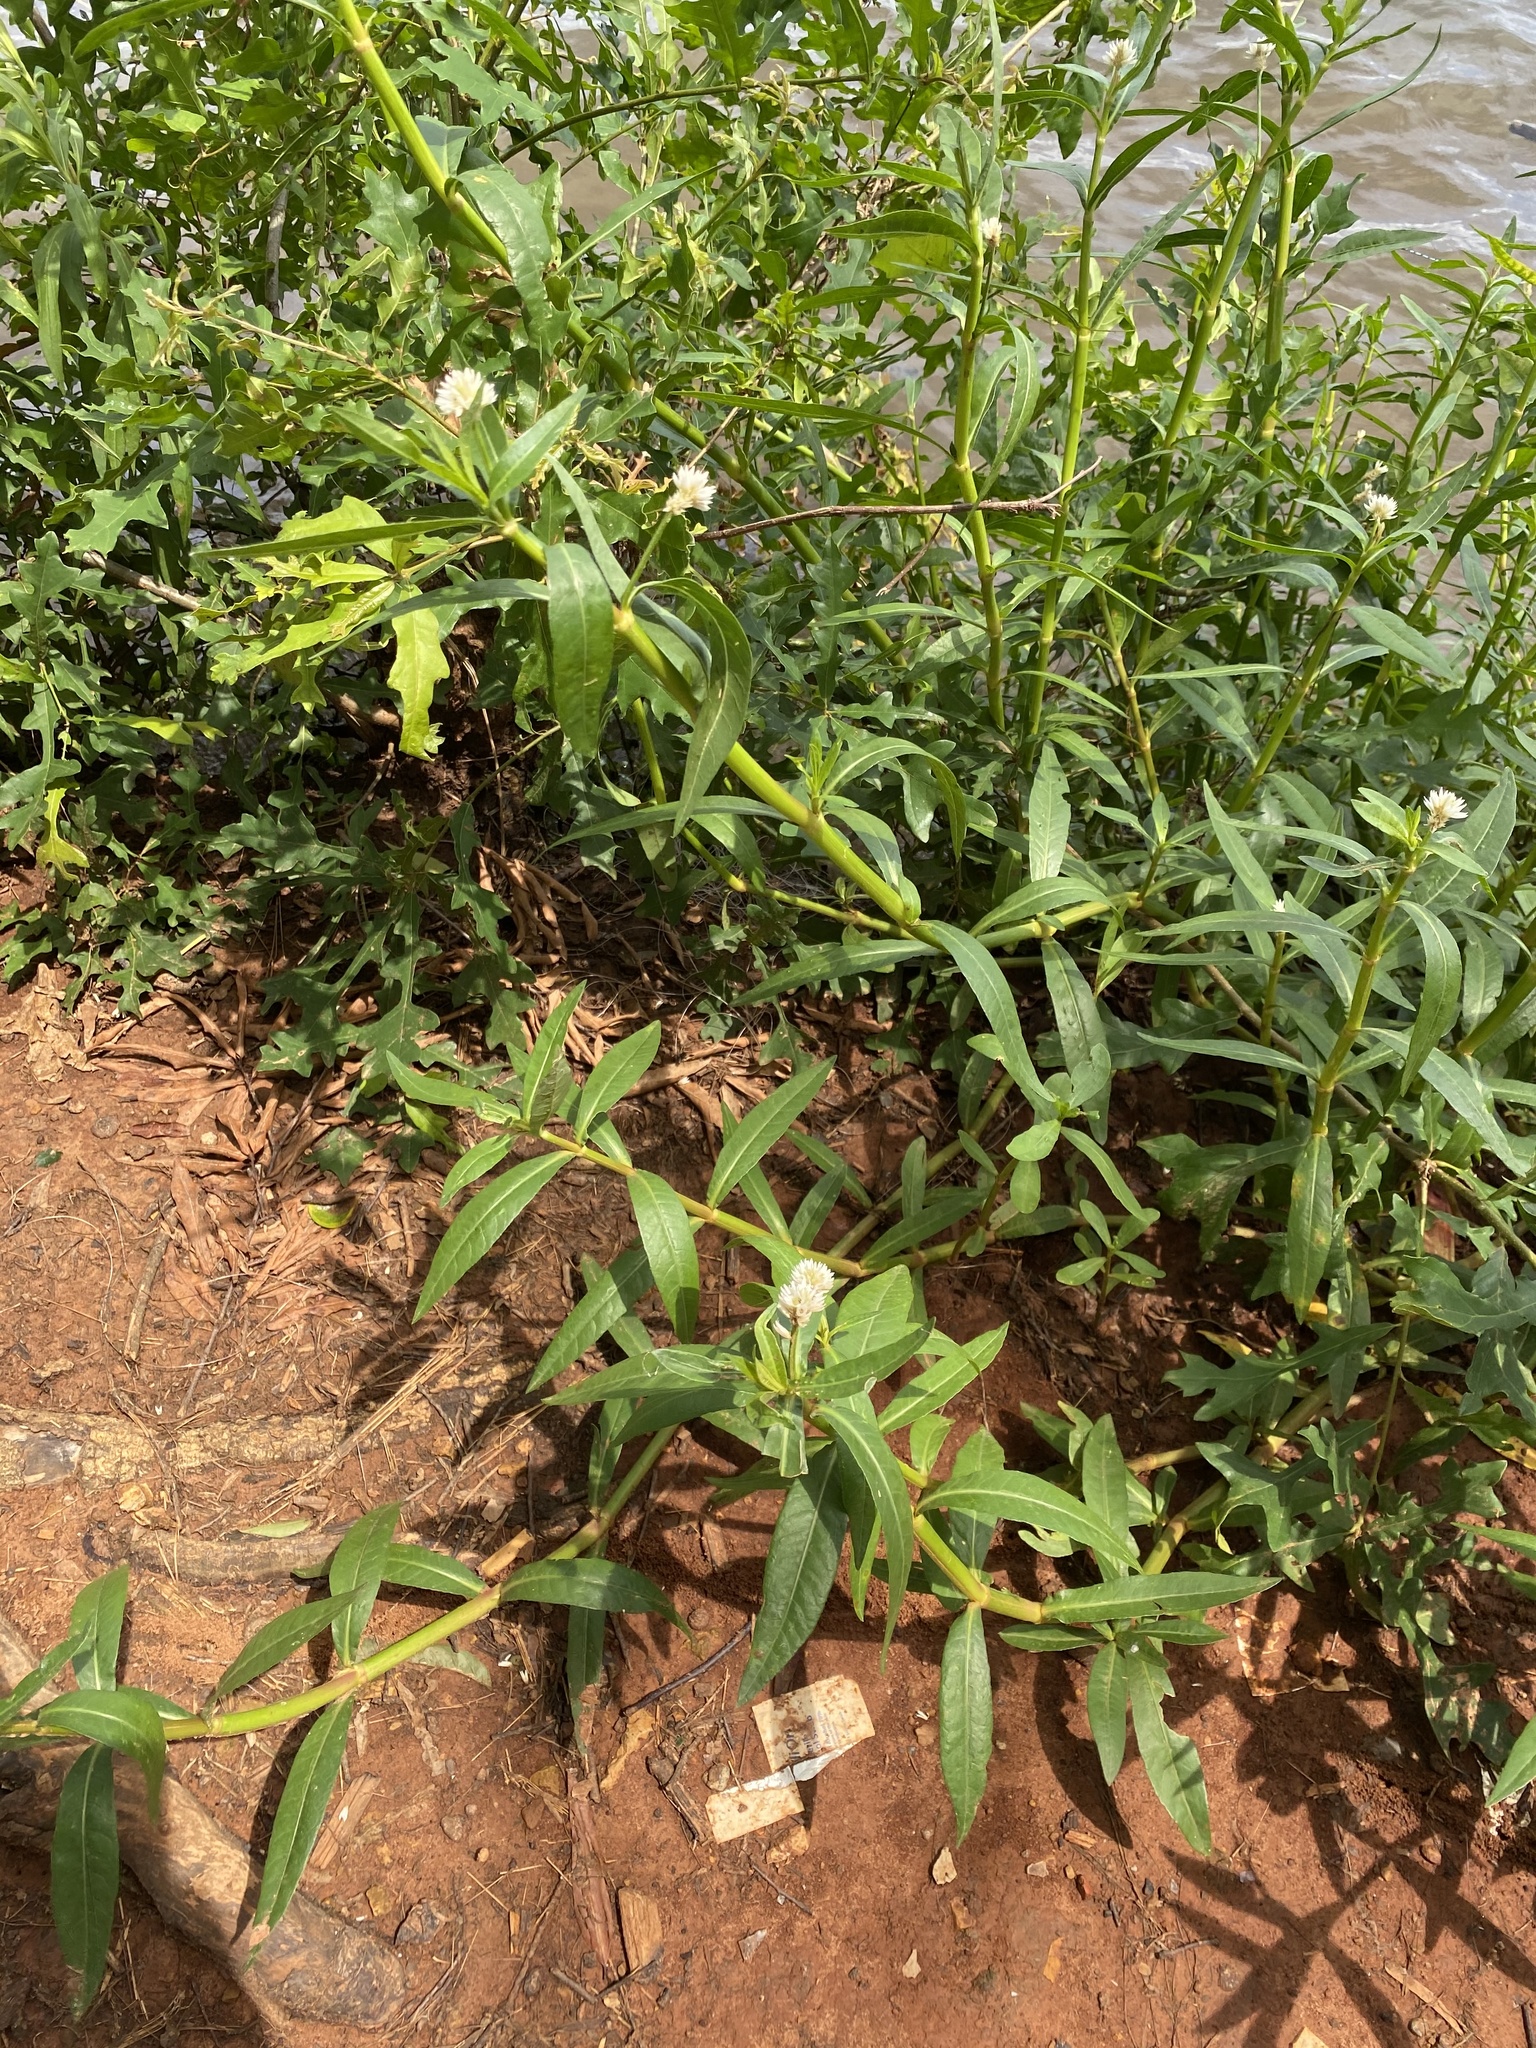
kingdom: Plantae
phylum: Tracheophyta
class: Magnoliopsida
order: Caryophyllales
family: Amaranthaceae
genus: Alternanthera
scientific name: Alternanthera philoxeroides
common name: Alligatorweed
